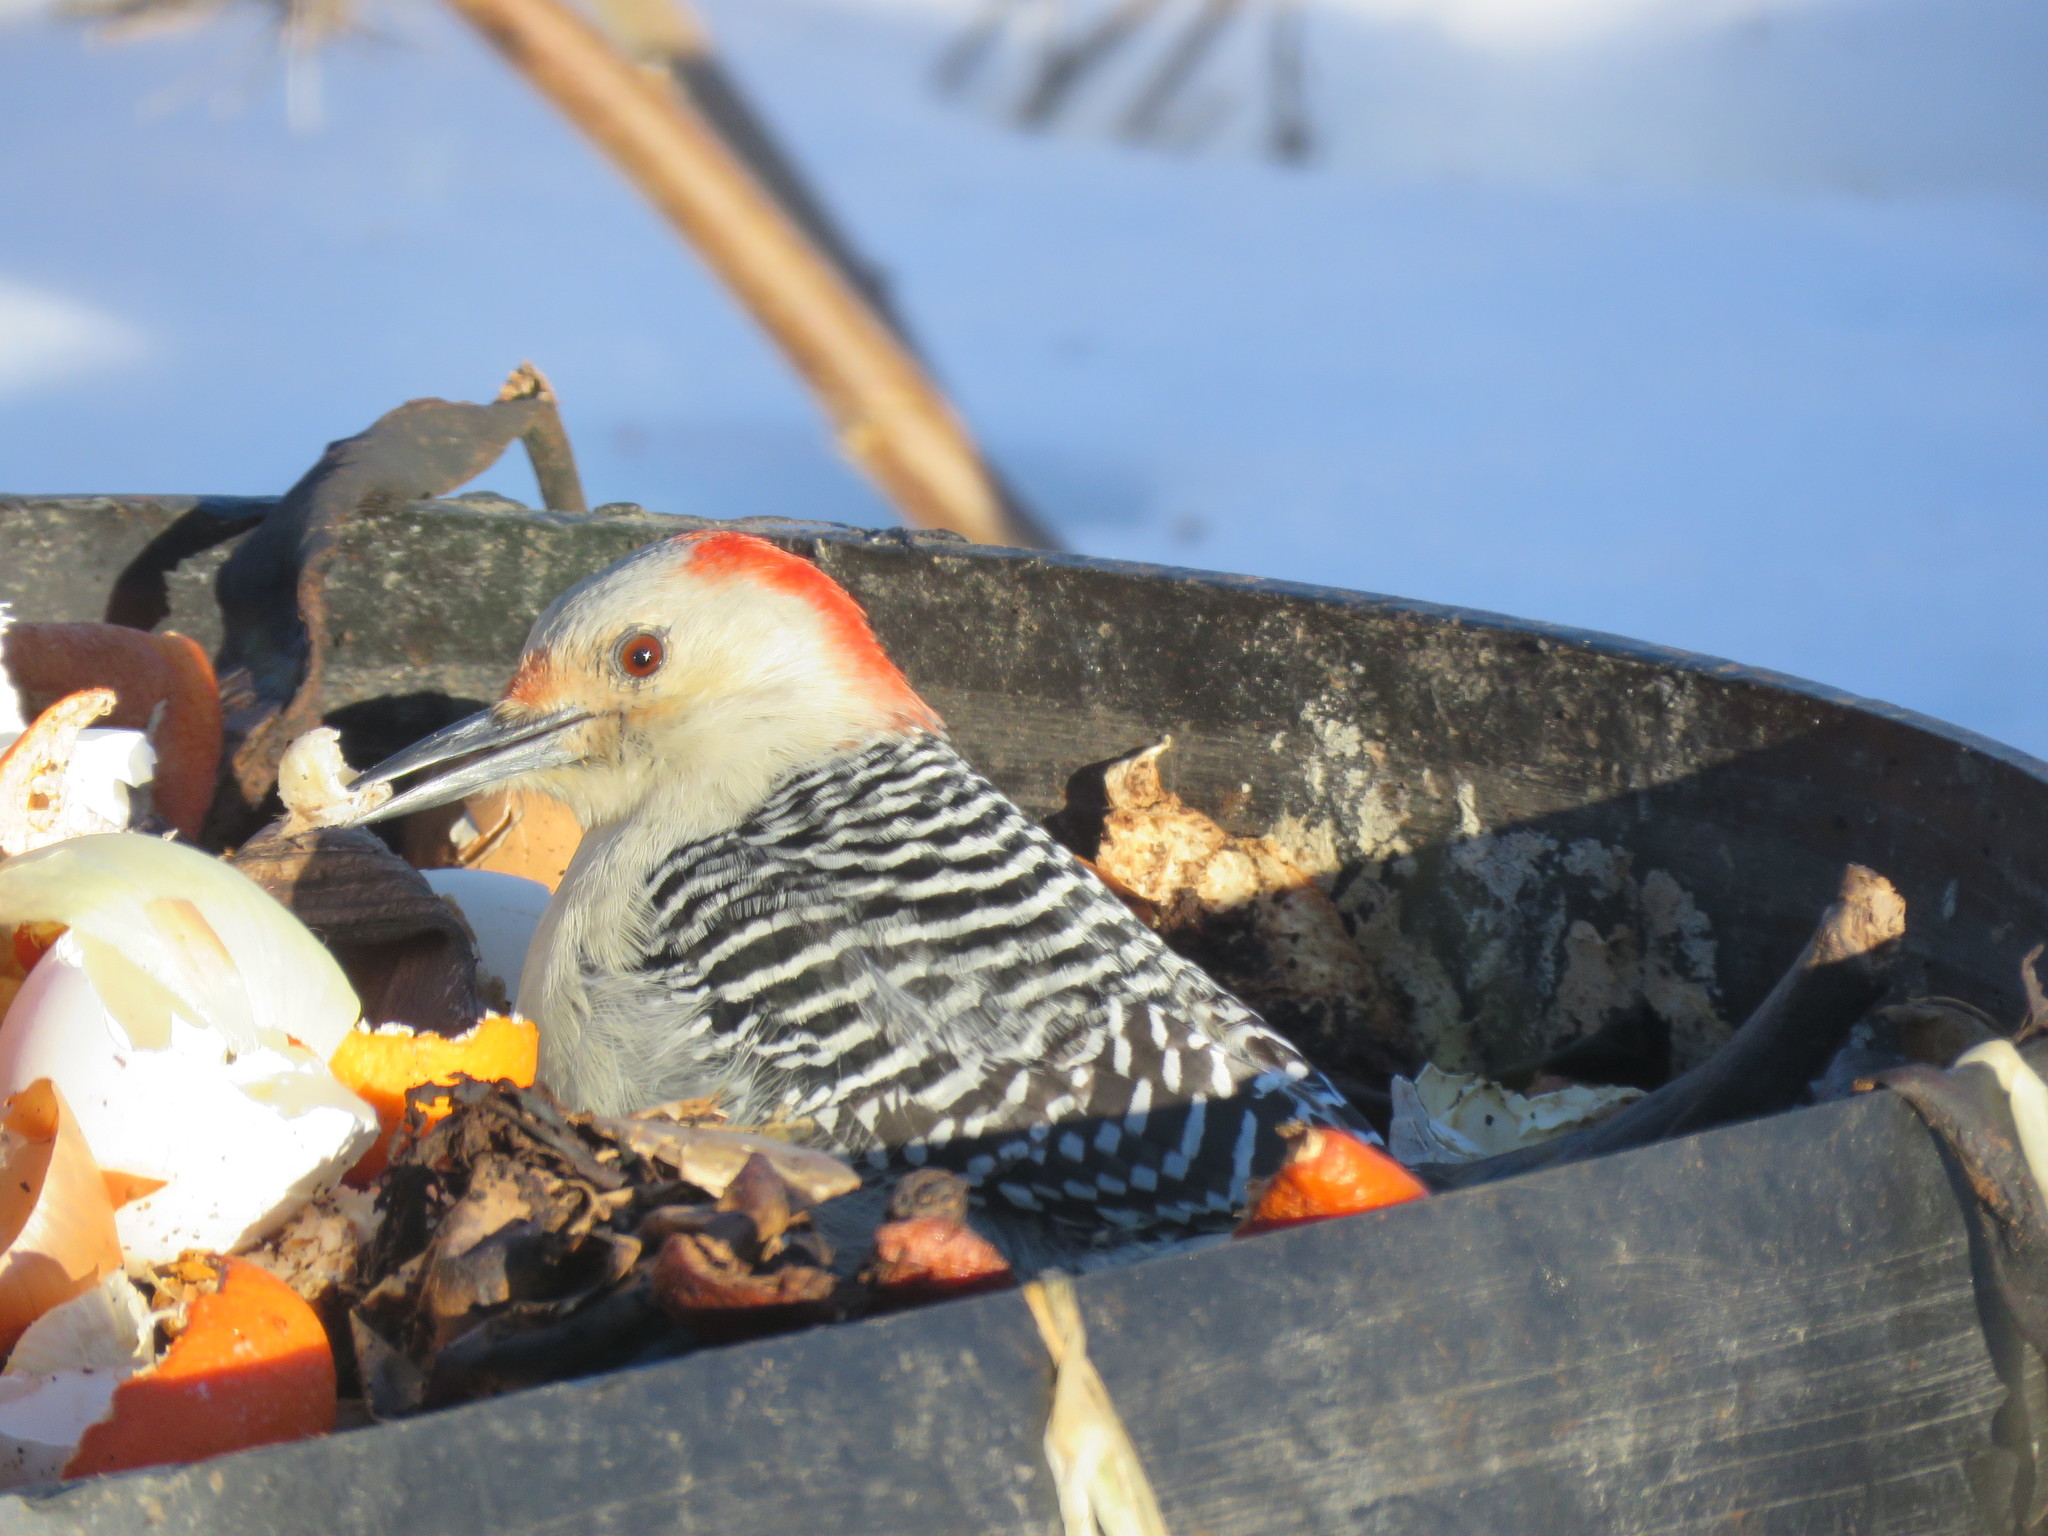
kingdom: Animalia
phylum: Chordata
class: Aves
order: Piciformes
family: Picidae
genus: Melanerpes
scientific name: Melanerpes carolinus
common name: Red-bellied woodpecker
